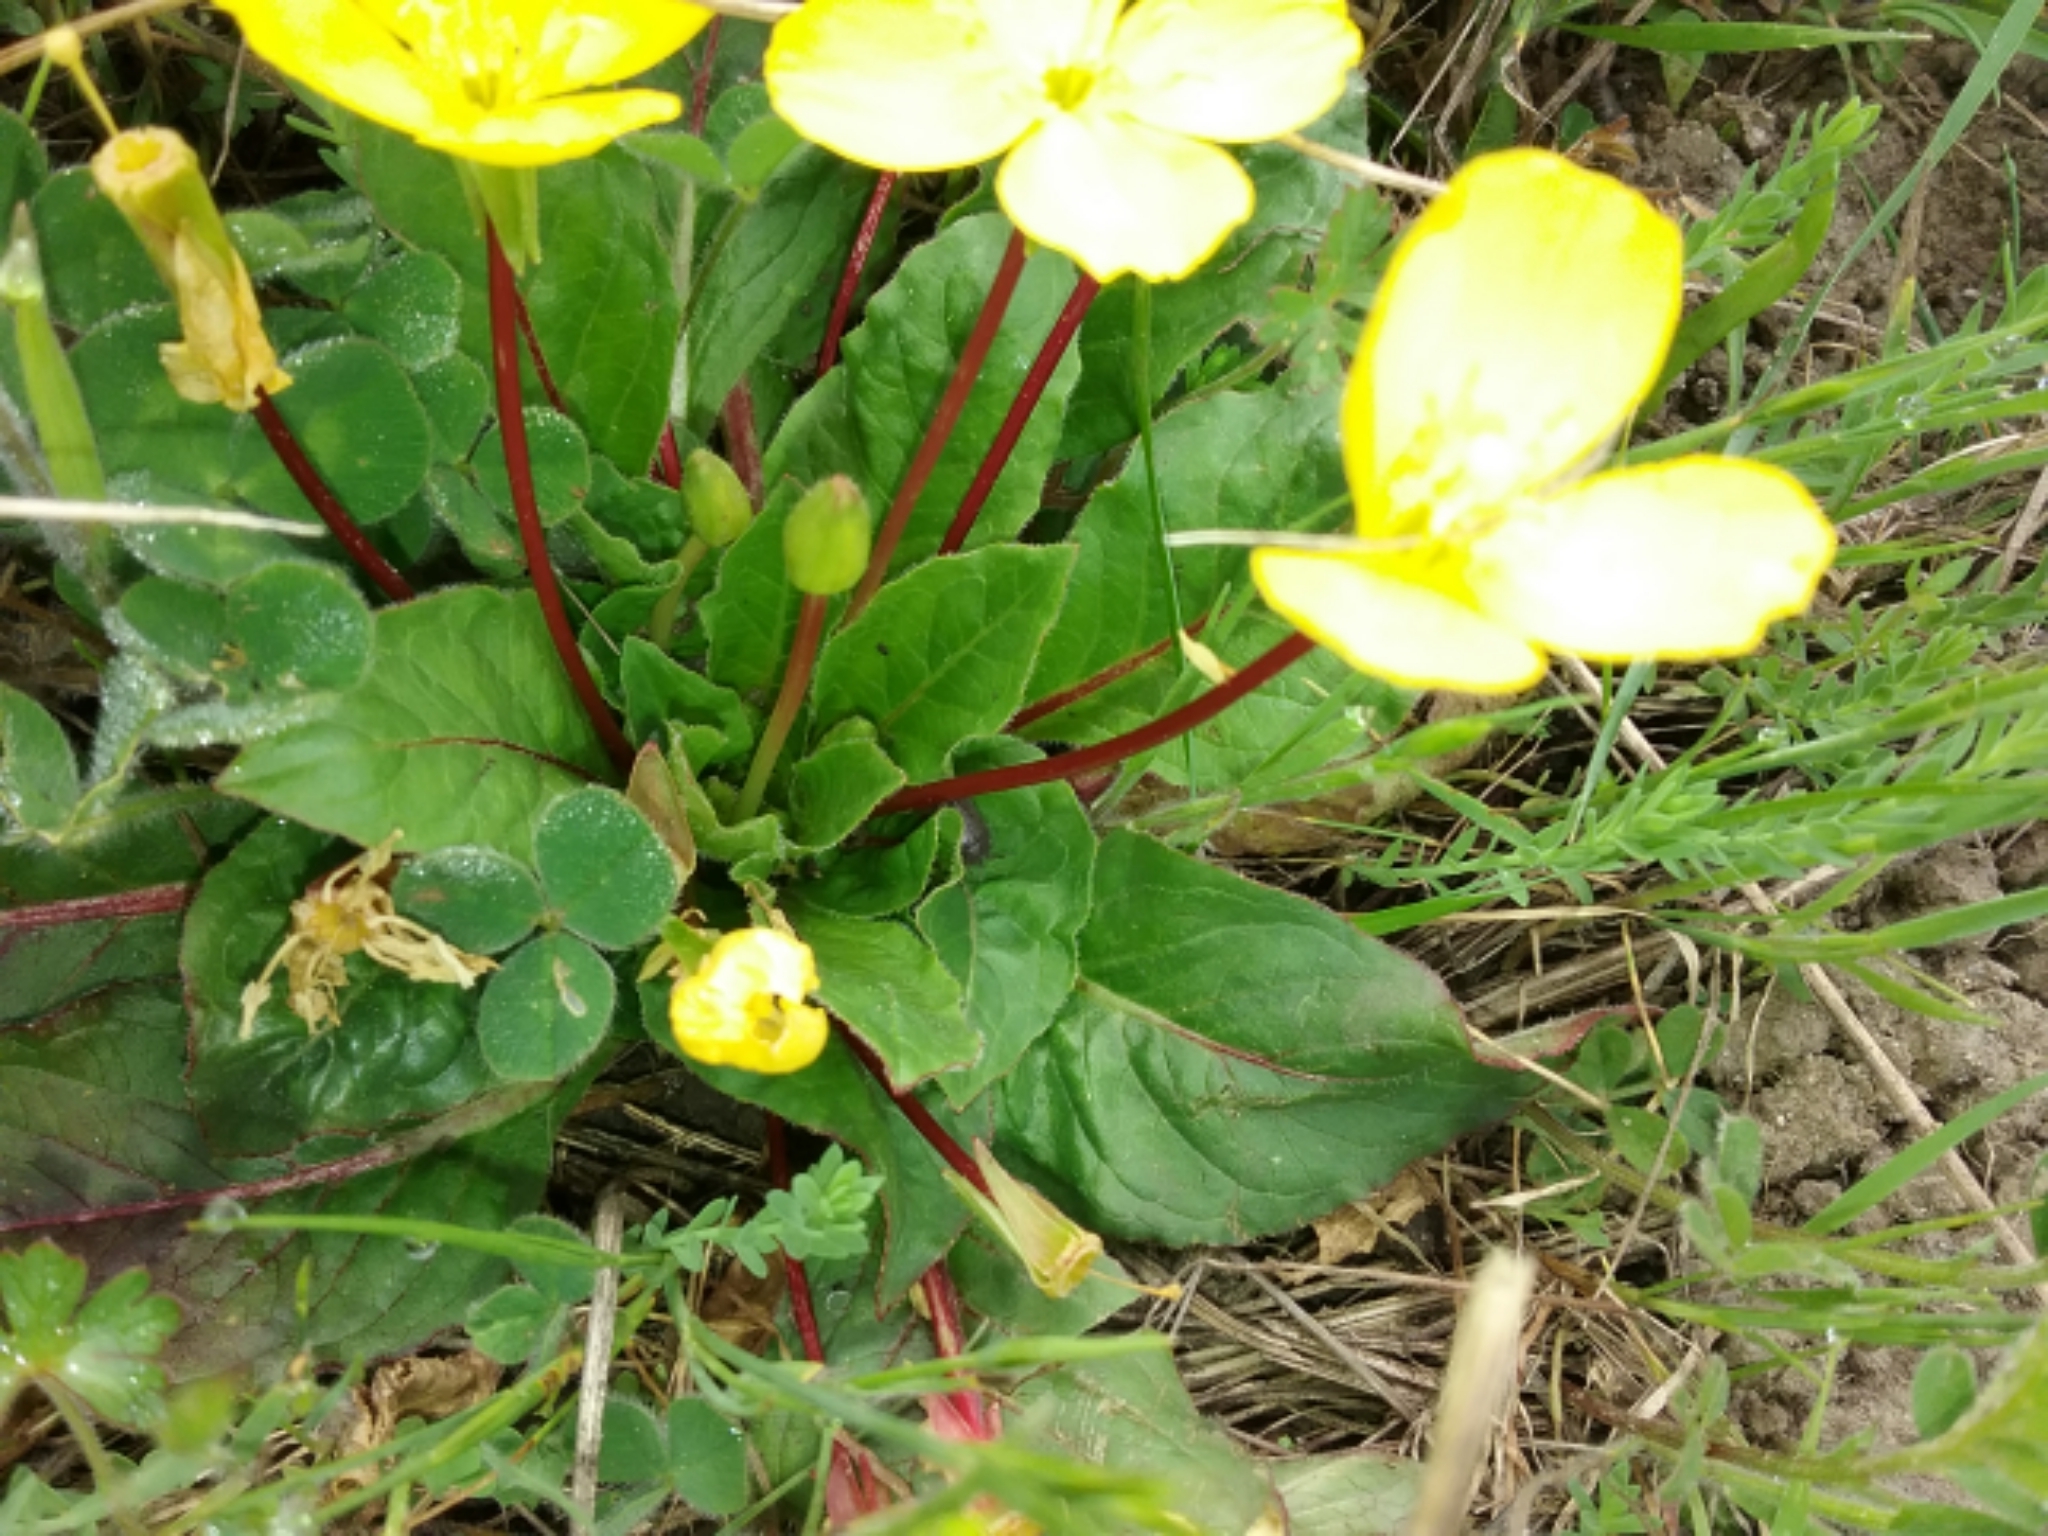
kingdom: Plantae
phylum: Tracheophyta
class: Magnoliopsida
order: Myrtales
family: Onagraceae
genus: Taraxia
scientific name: Taraxia ovata
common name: Goldeneggs
